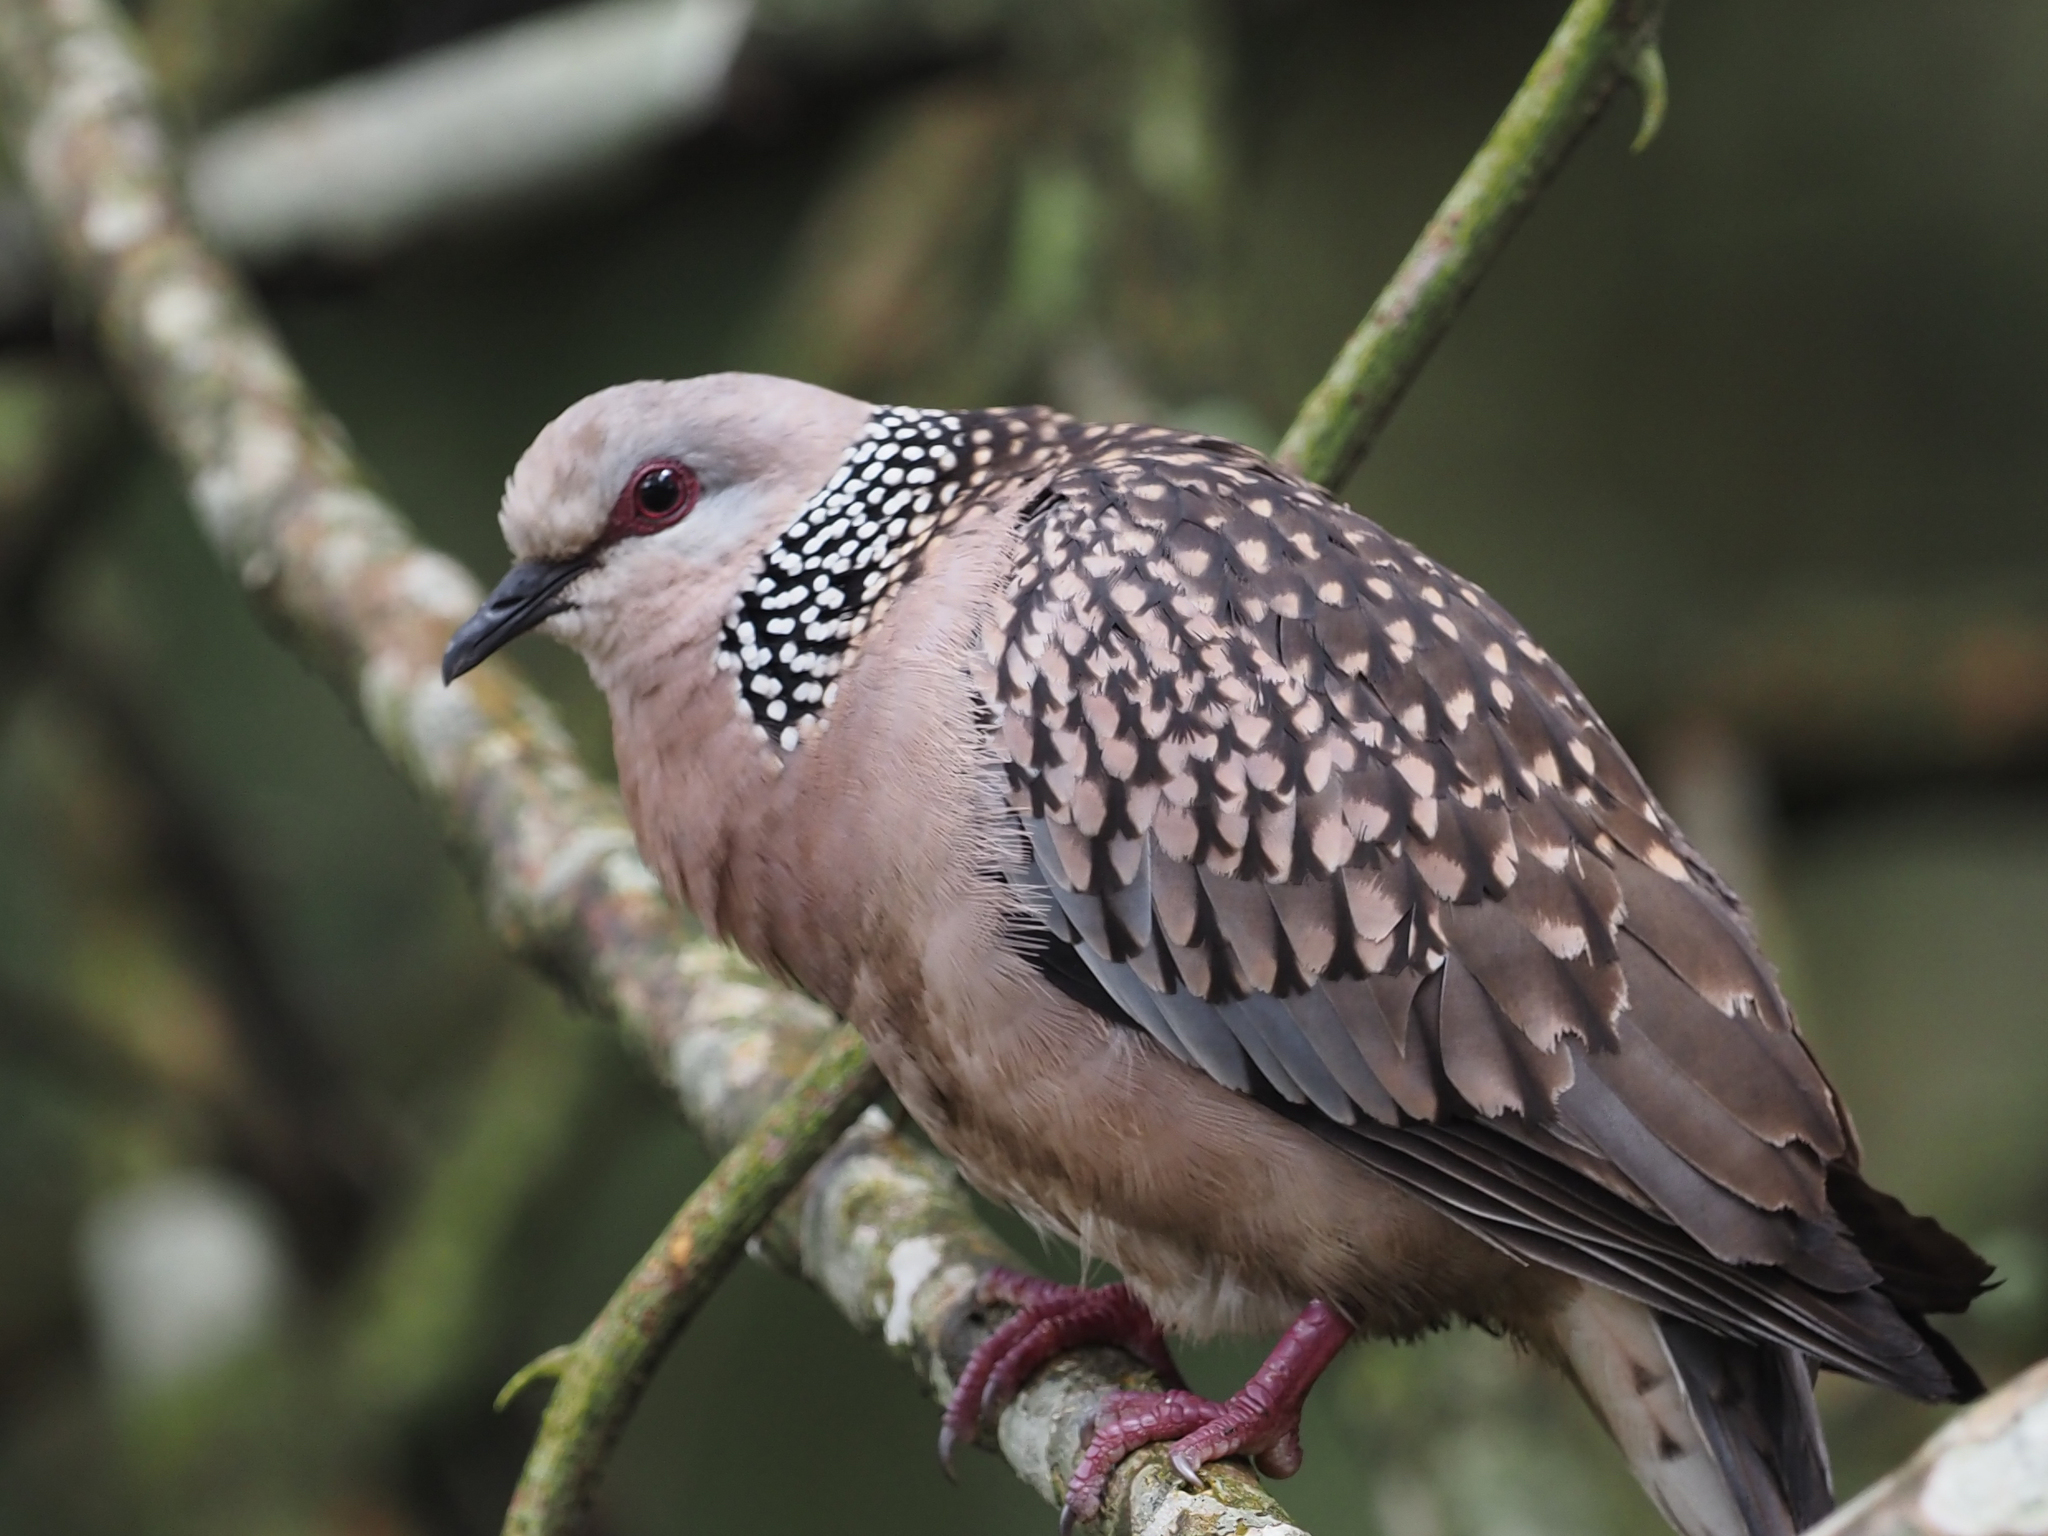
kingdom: Animalia
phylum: Chordata
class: Aves
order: Columbiformes
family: Columbidae
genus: Spilopelia
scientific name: Spilopelia chinensis
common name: Spotted dove
